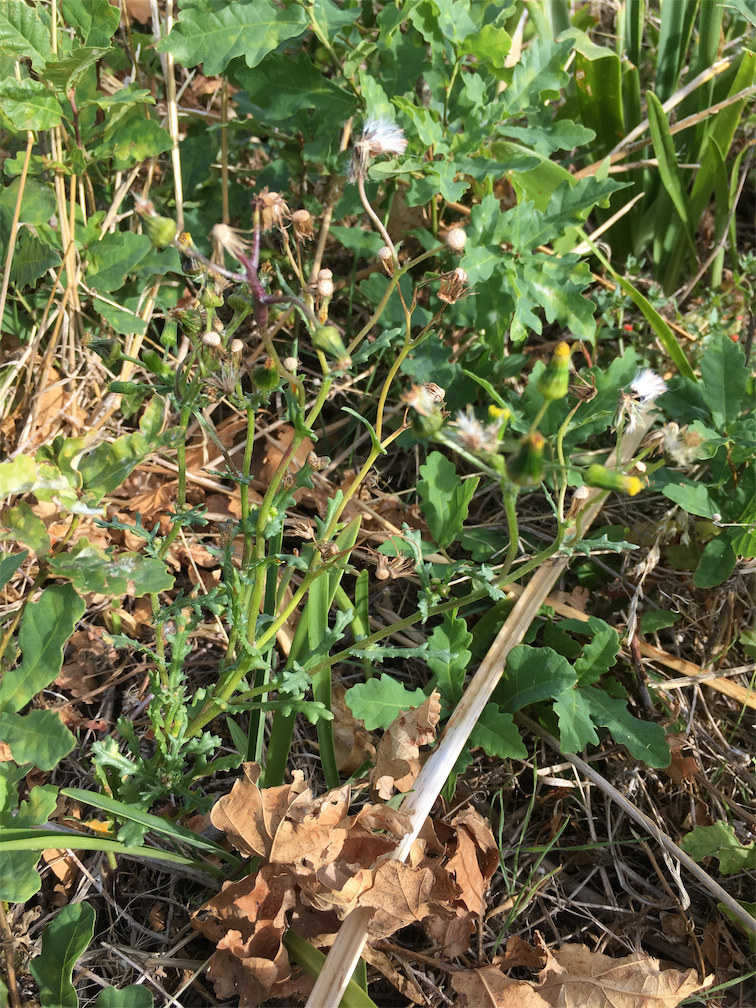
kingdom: Plantae
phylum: Tracheophyta
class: Magnoliopsida
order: Asterales
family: Asteraceae
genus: Senecio
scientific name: Senecio vulgaris
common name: Old-man-in-the-spring
